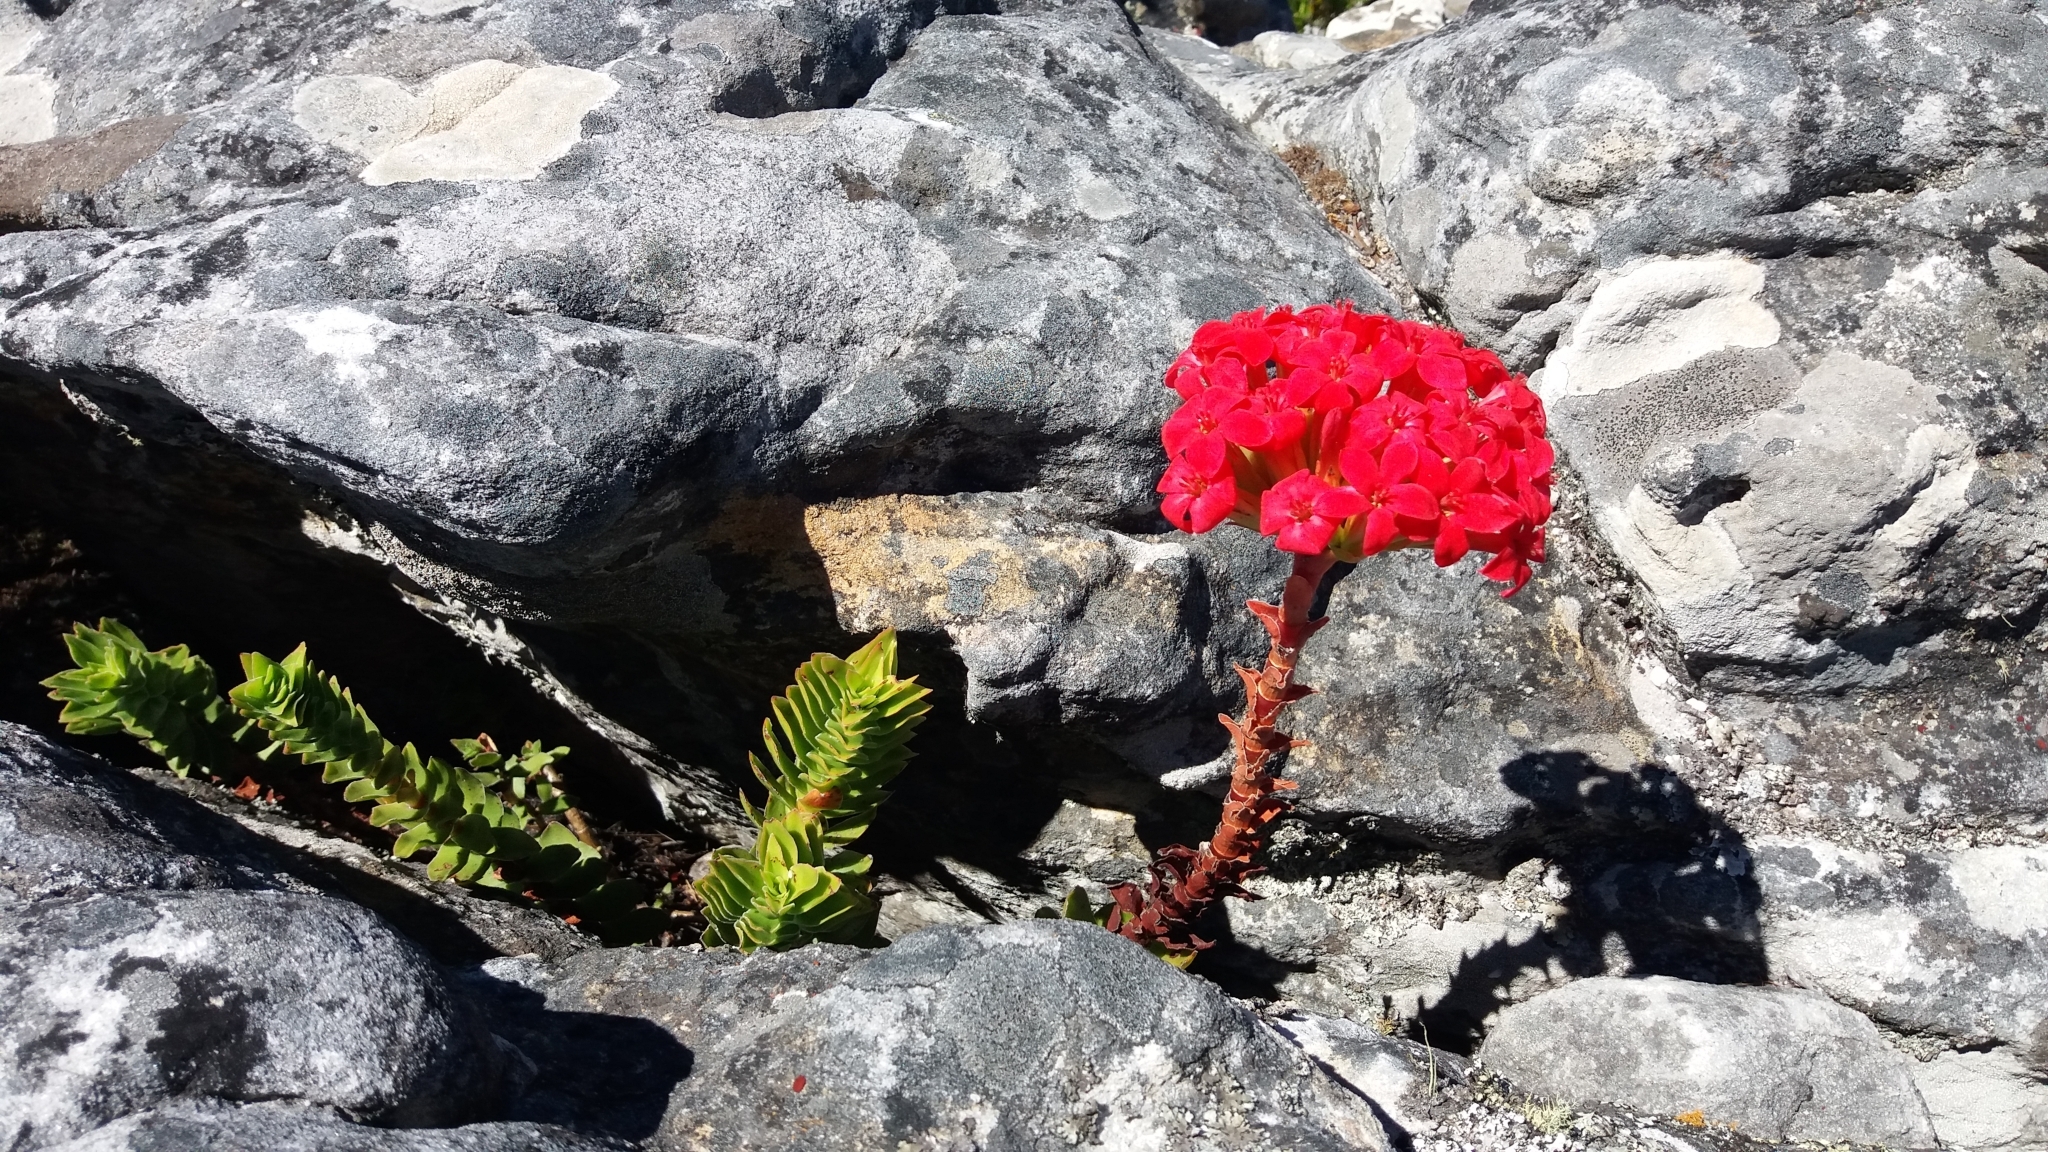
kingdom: Plantae
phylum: Tracheophyta
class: Magnoliopsida
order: Saxifragales
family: Crassulaceae
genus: Crassula
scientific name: Crassula coccinea
